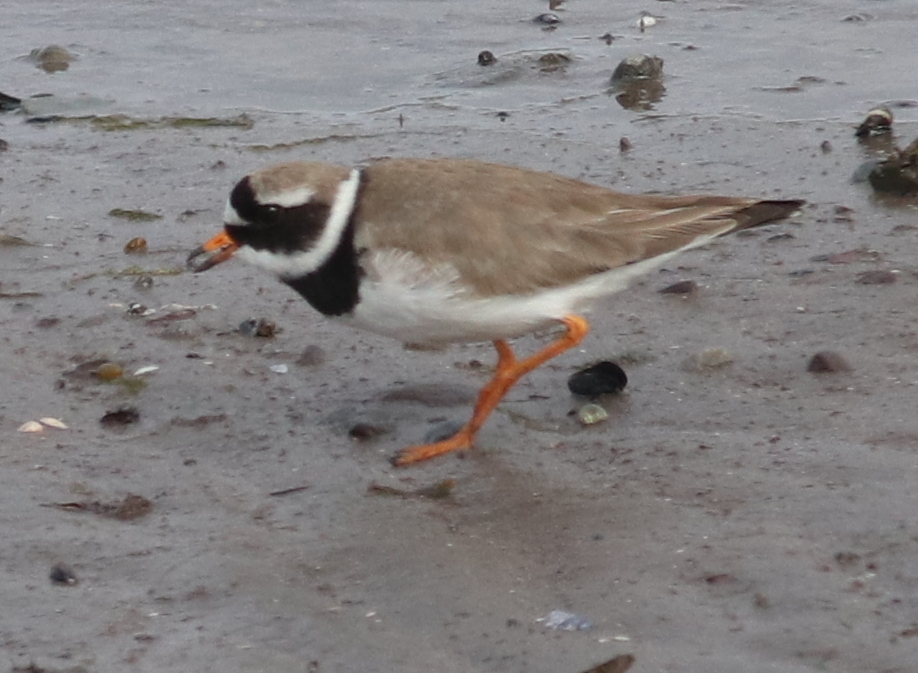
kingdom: Animalia
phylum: Chordata
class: Aves
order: Charadriiformes
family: Charadriidae
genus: Charadrius
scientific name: Charadrius hiaticula
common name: Common ringed plover
